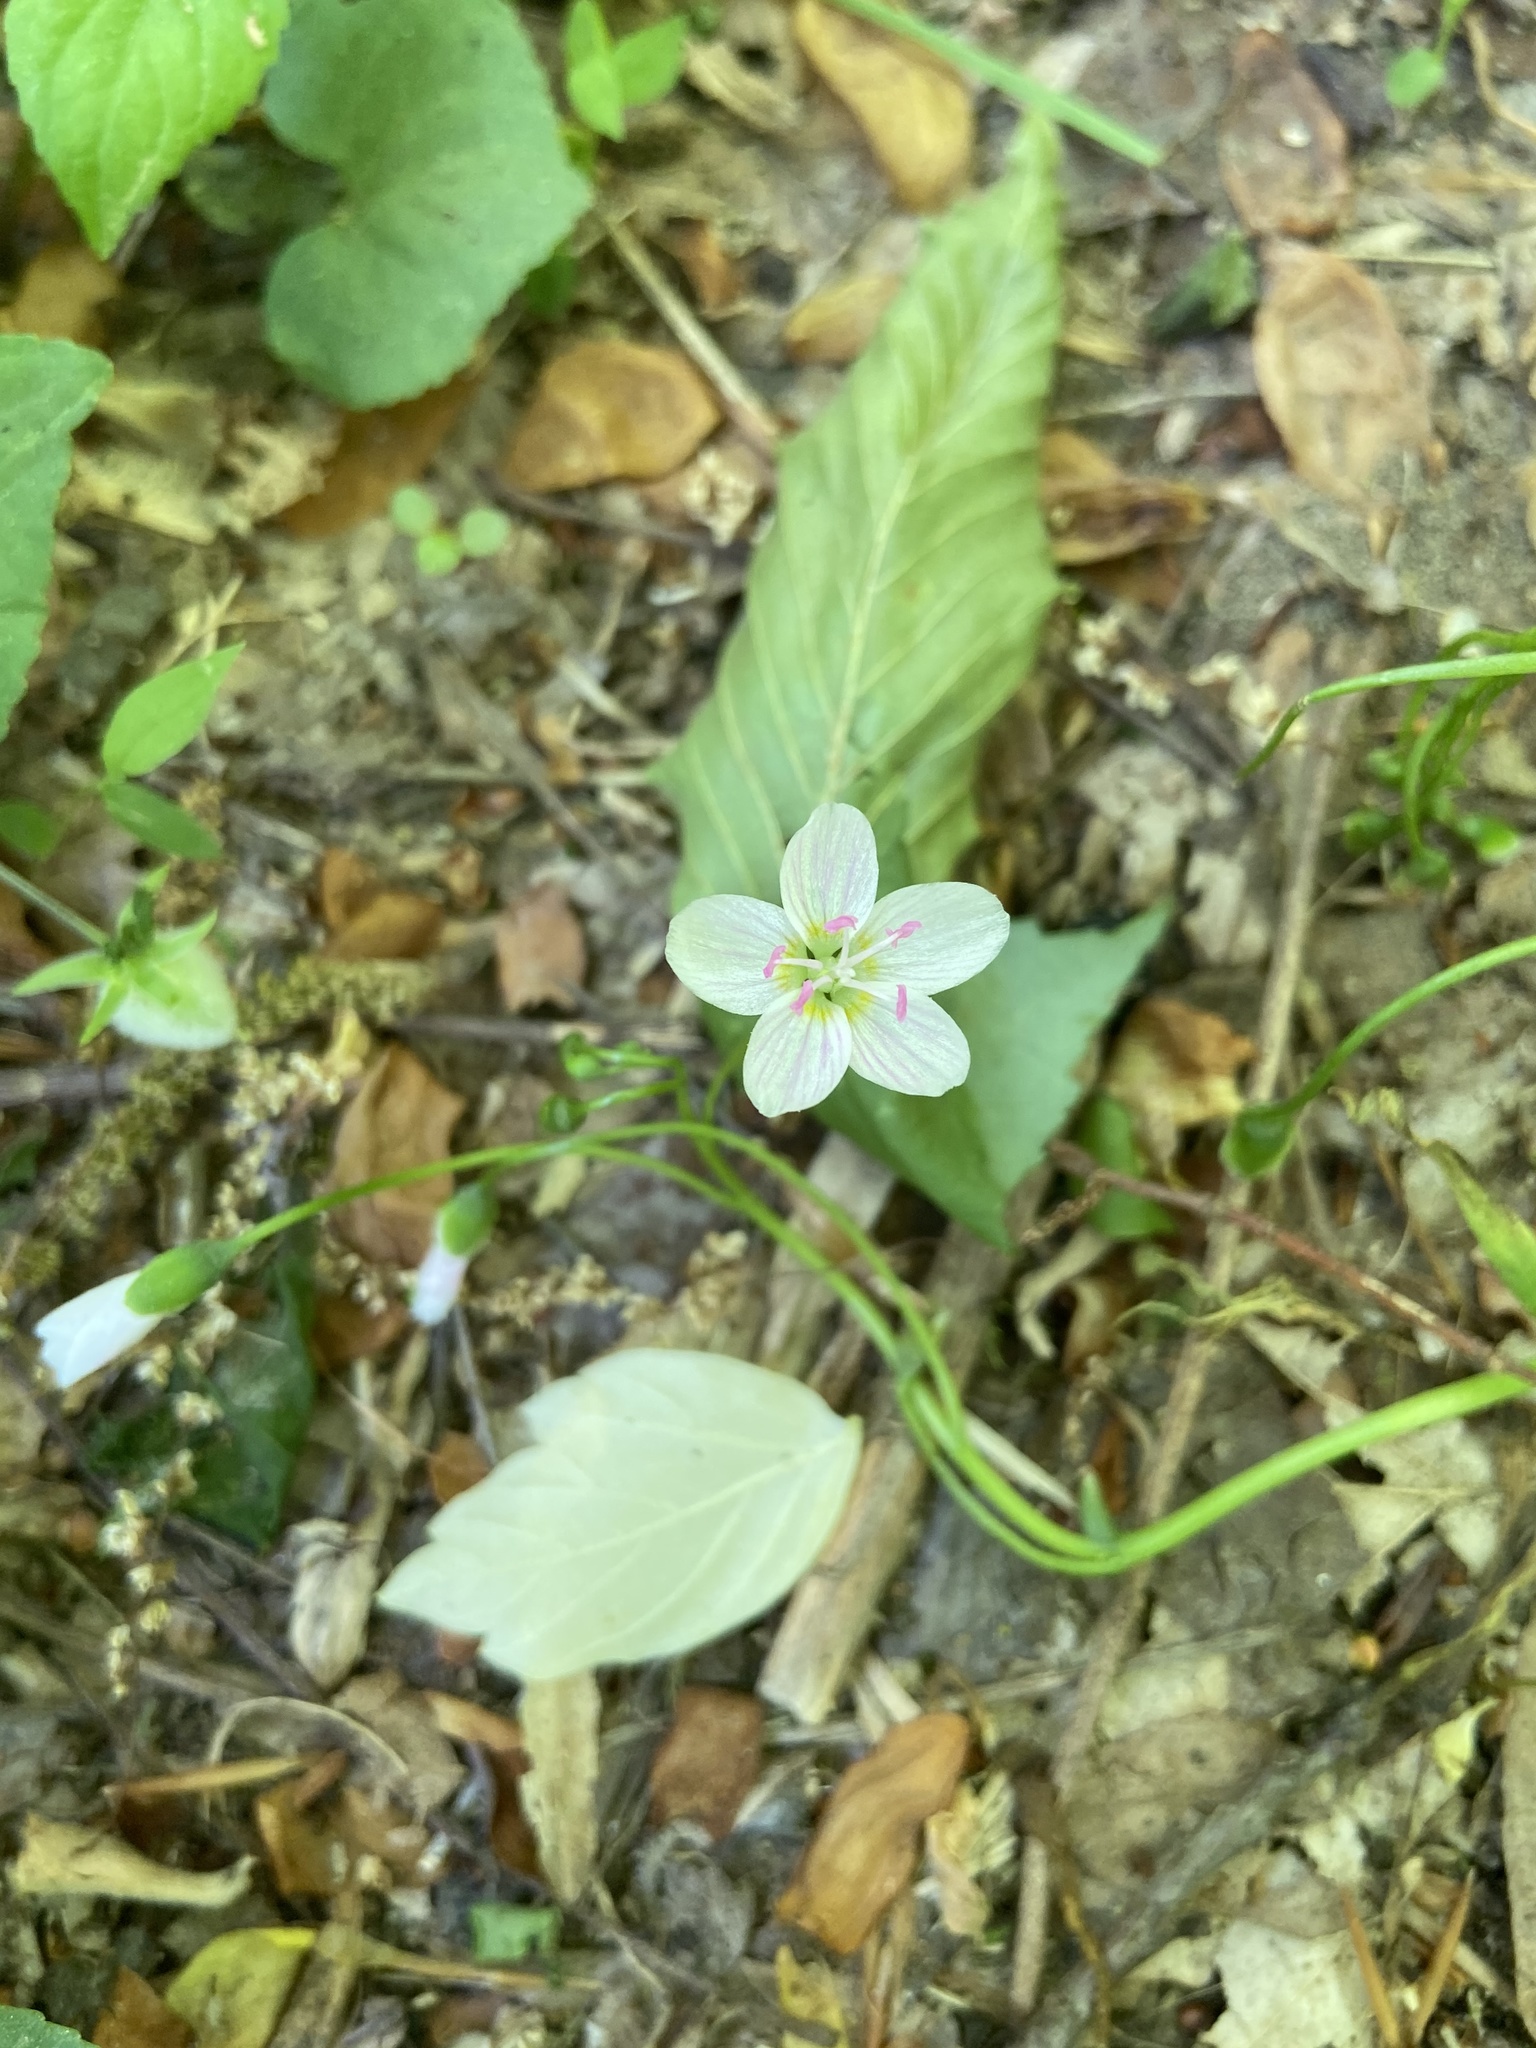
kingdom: Plantae
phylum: Tracheophyta
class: Magnoliopsida
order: Caryophyllales
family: Montiaceae
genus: Claytonia
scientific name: Claytonia virginica
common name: Virginia springbeauty
